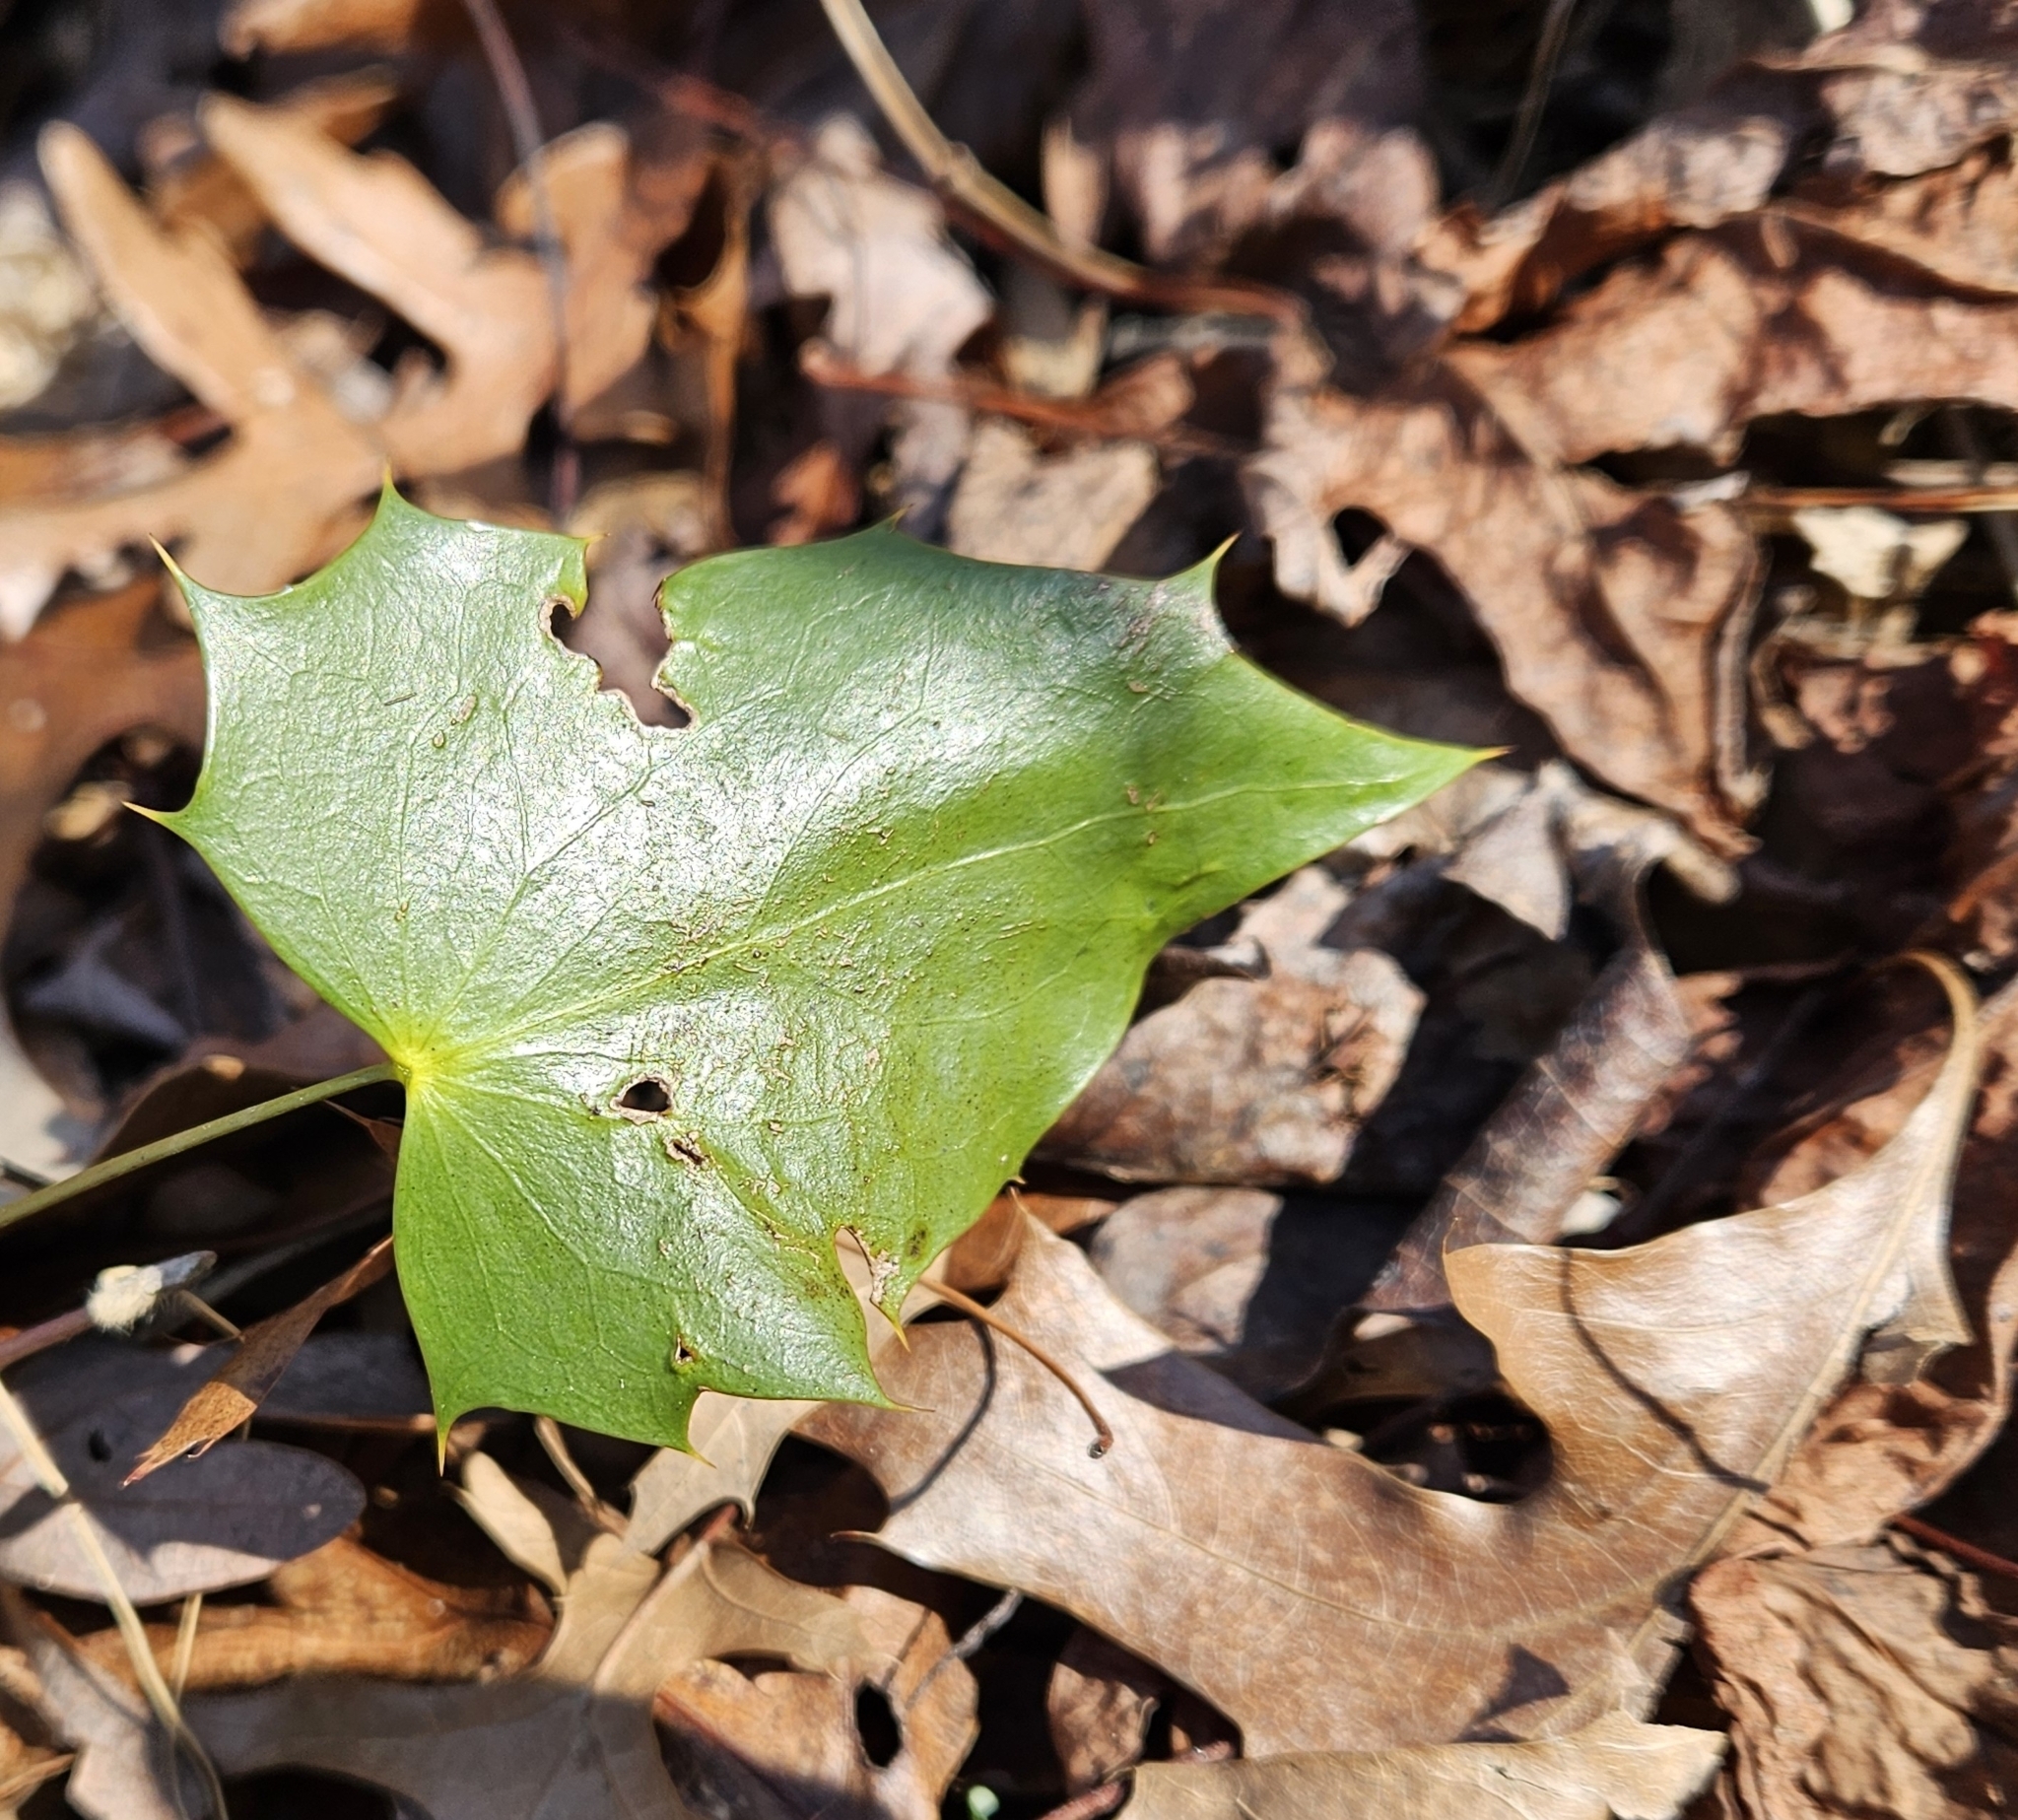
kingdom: Plantae
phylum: Tracheophyta
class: Magnoliopsida
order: Ranunculales
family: Berberidaceae
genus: Mahonia
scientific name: Mahonia bealei
